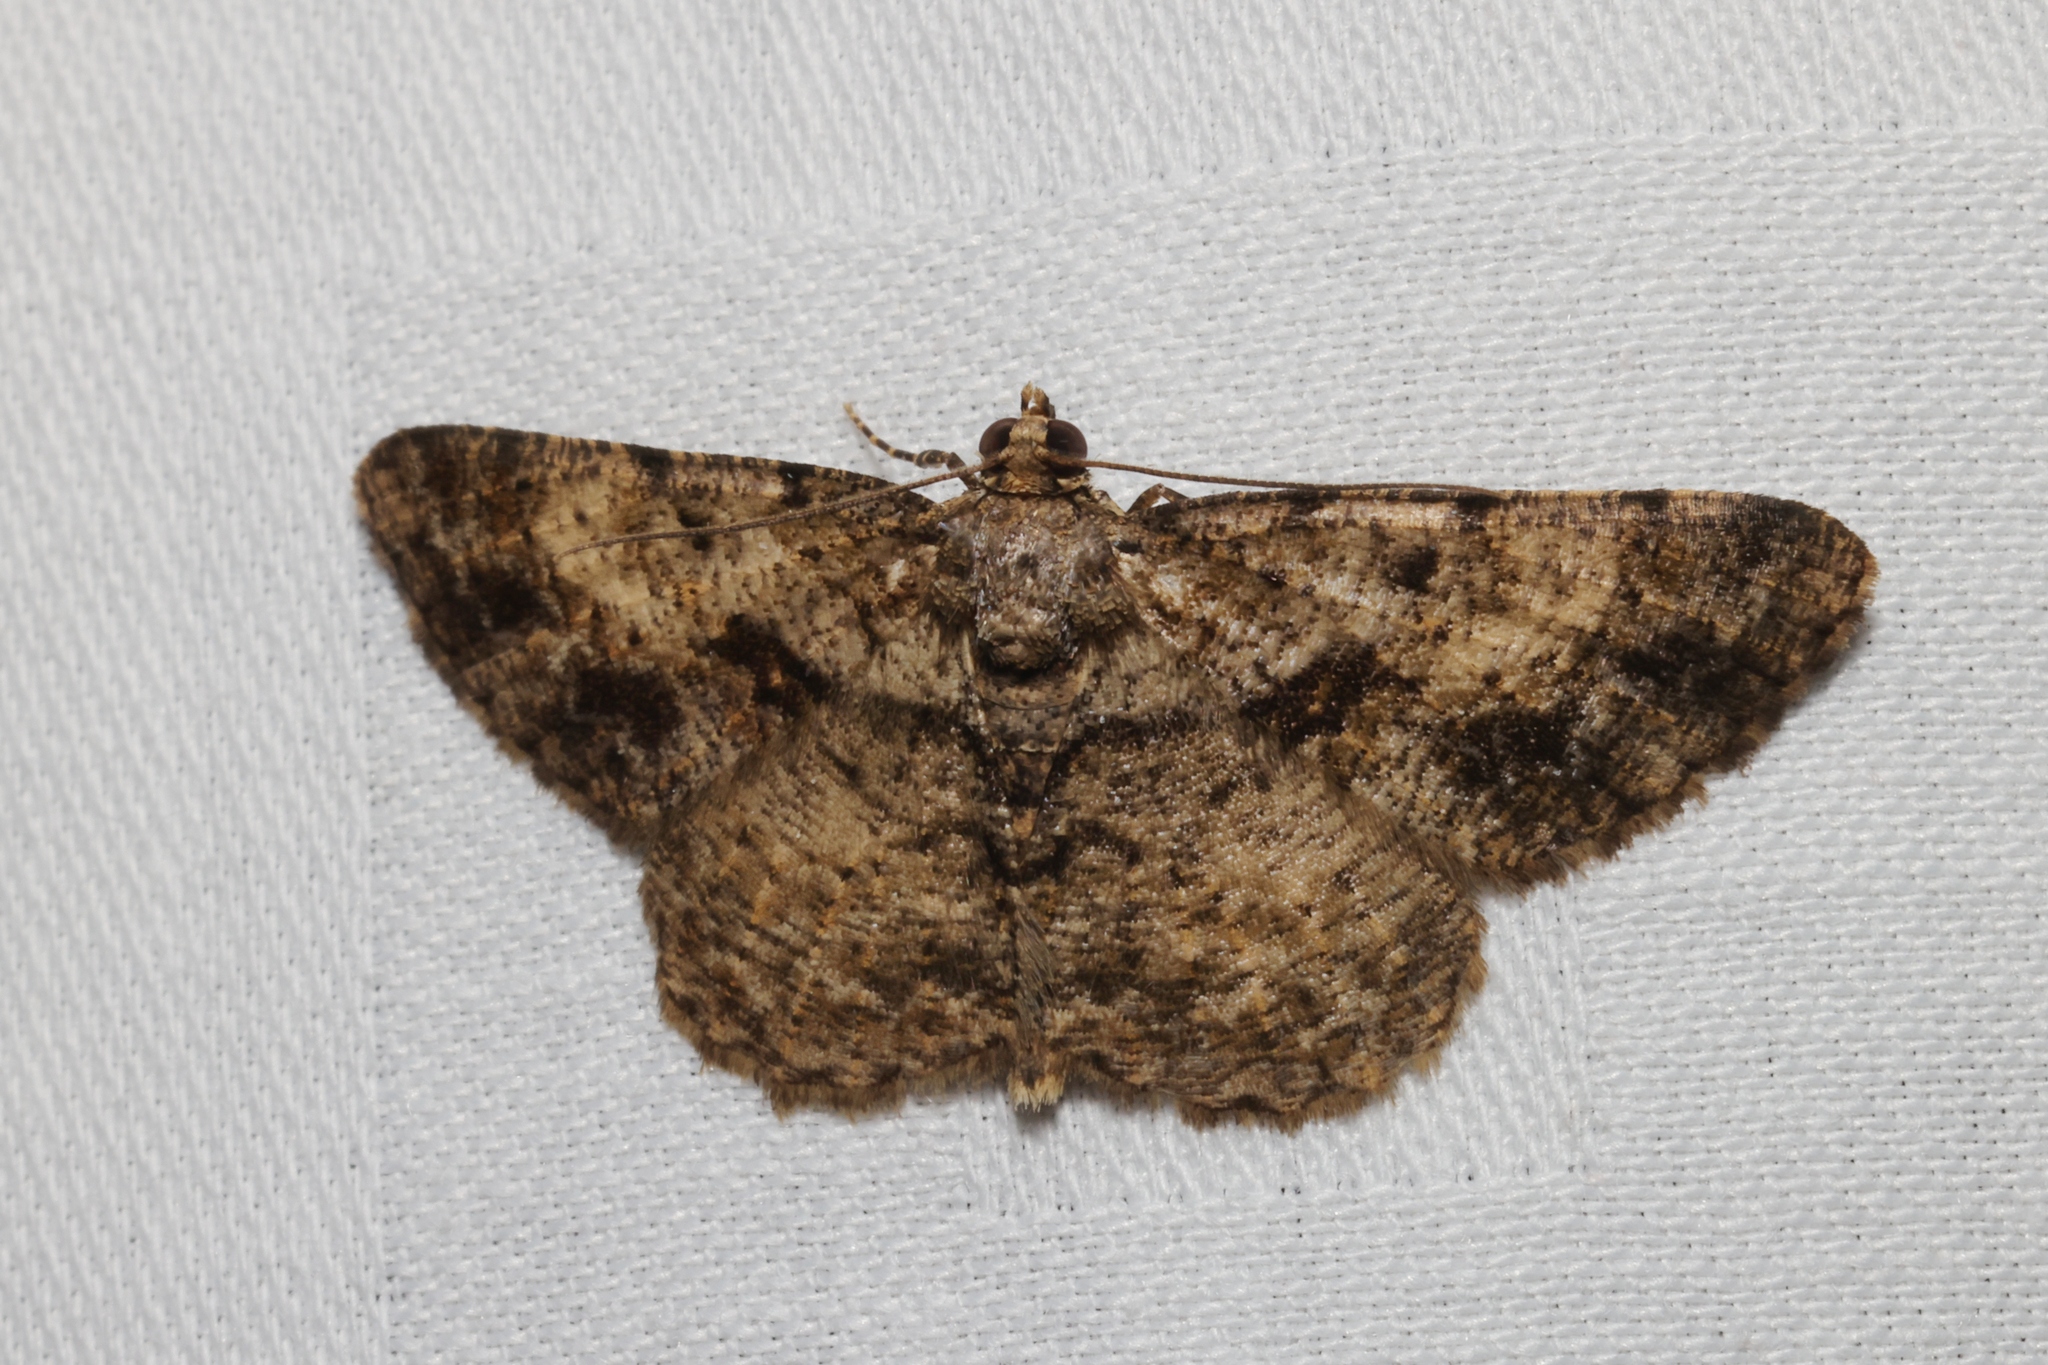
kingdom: Animalia
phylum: Arthropoda
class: Insecta
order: Lepidoptera
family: Geometridae
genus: Psilalcis
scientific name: Psilalcis galsworthyi
